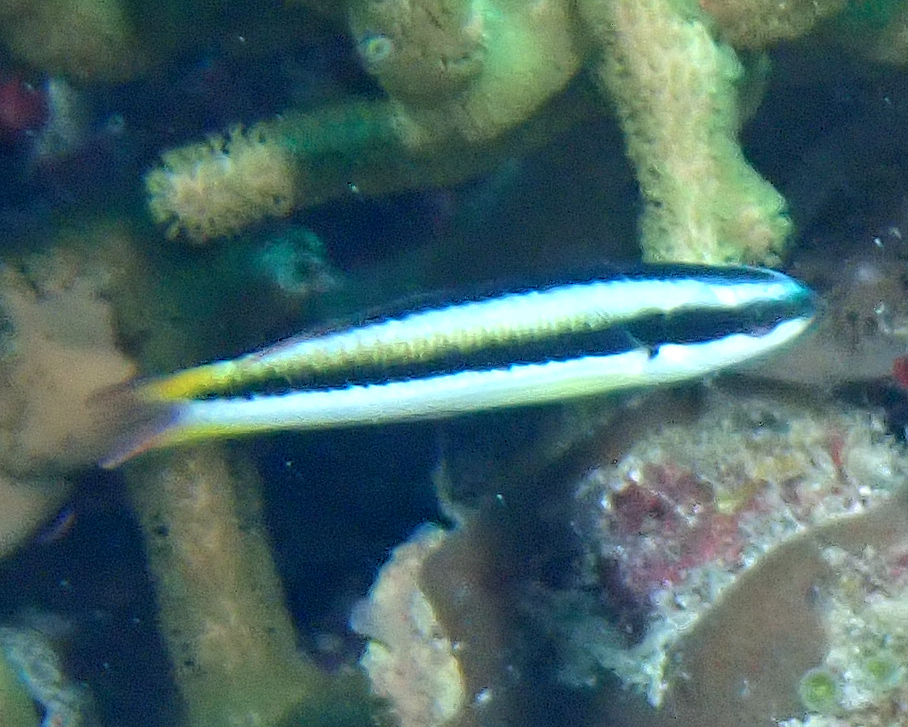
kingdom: Animalia
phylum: Chordata
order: Perciformes
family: Labridae
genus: Thalassoma
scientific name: Thalassoma amblycephalum
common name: Bluehead wrasse
